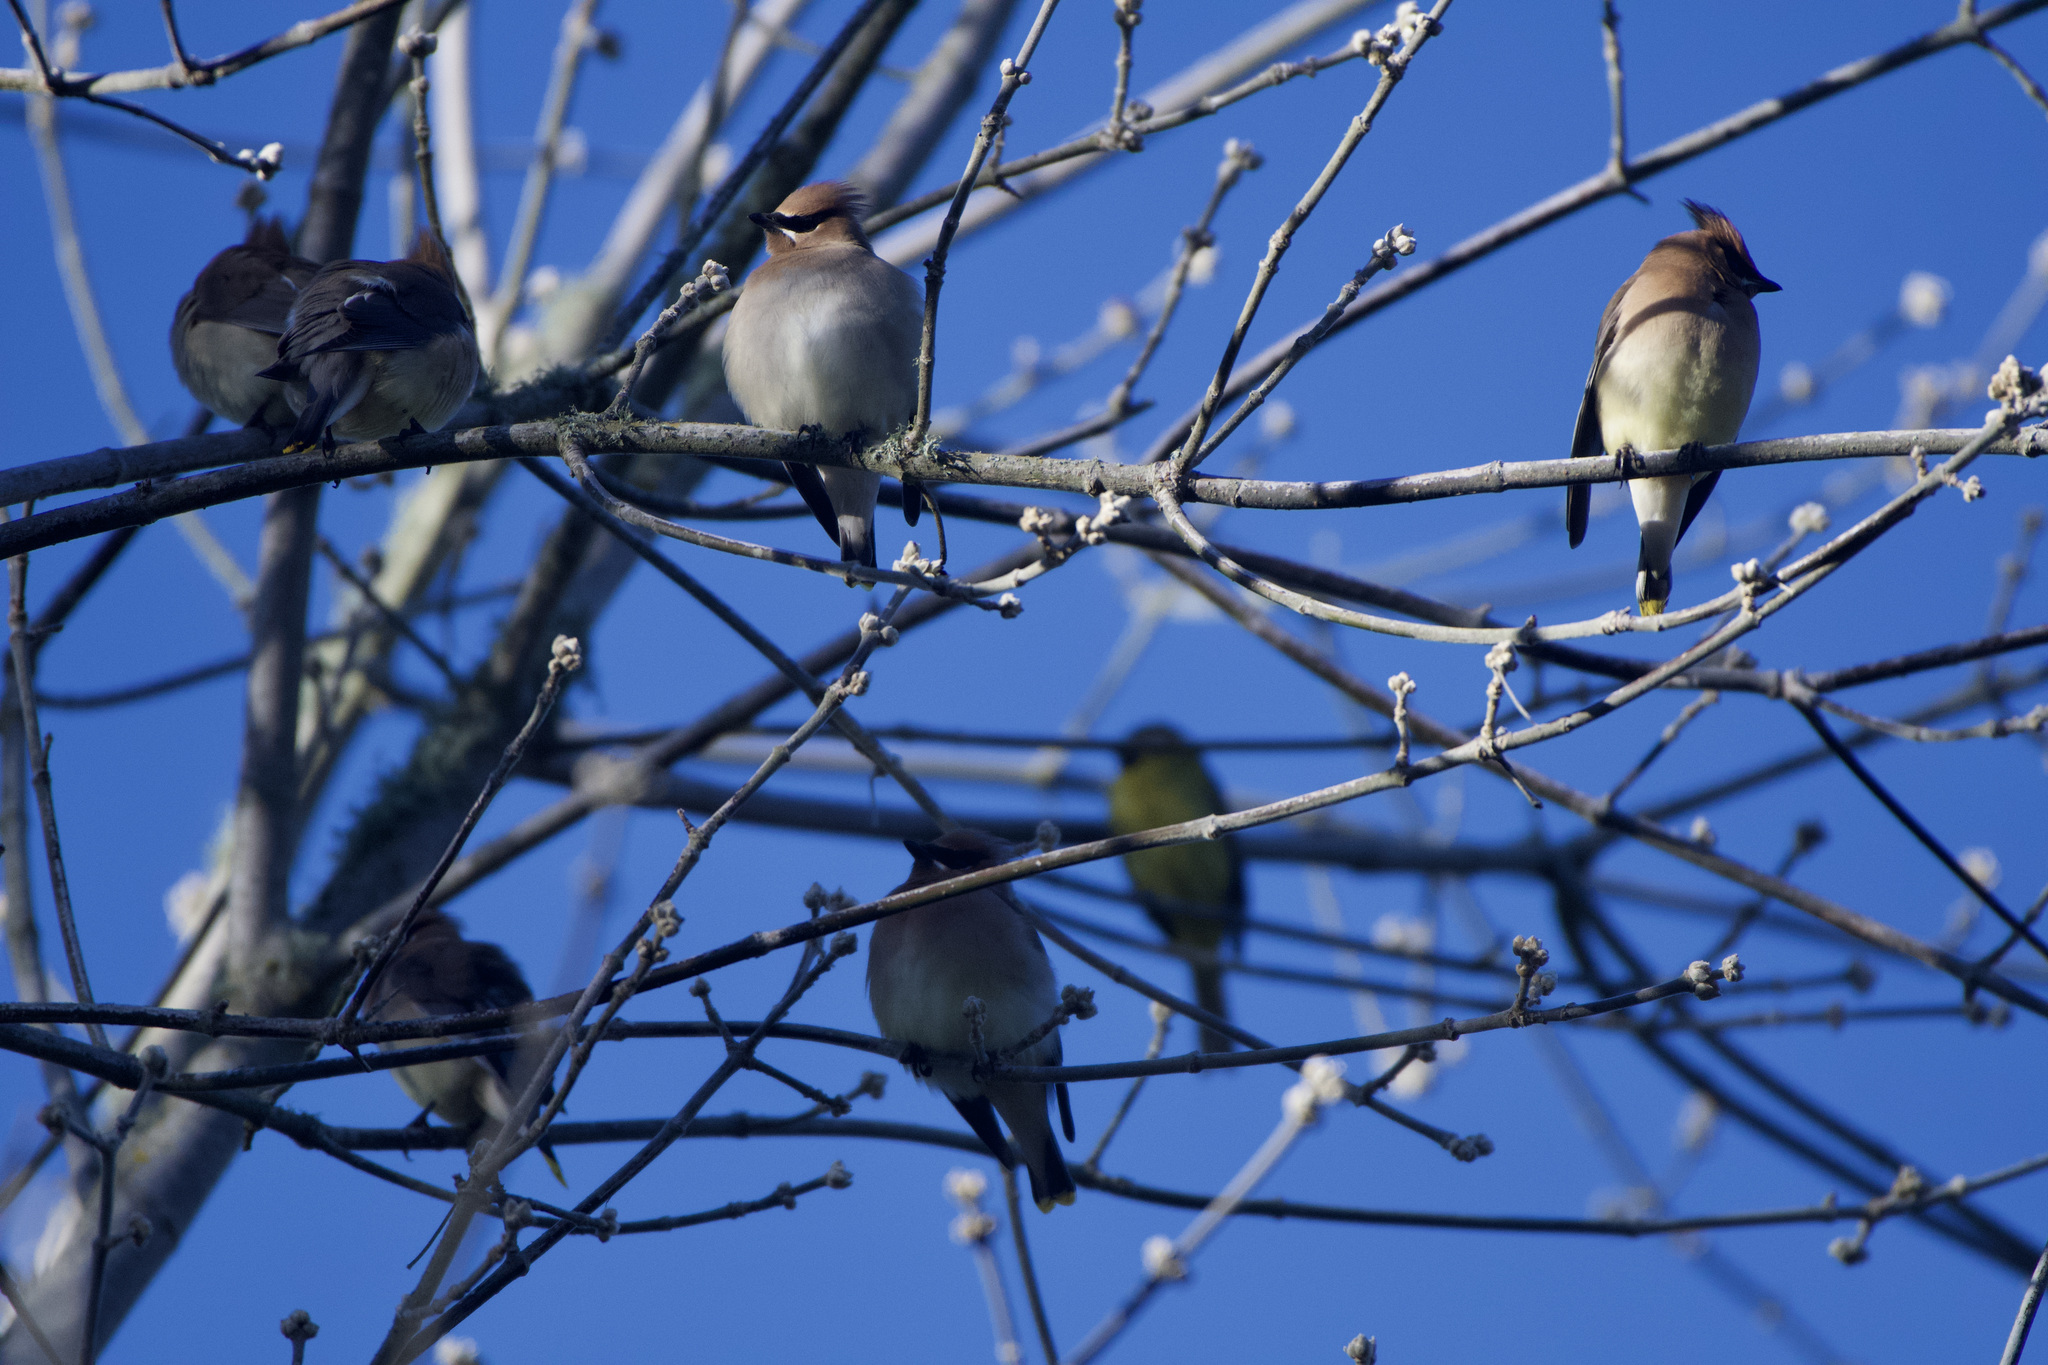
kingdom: Animalia
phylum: Chordata
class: Aves
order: Passeriformes
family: Bombycillidae
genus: Bombycilla
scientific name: Bombycilla cedrorum
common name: Cedar waxwing
